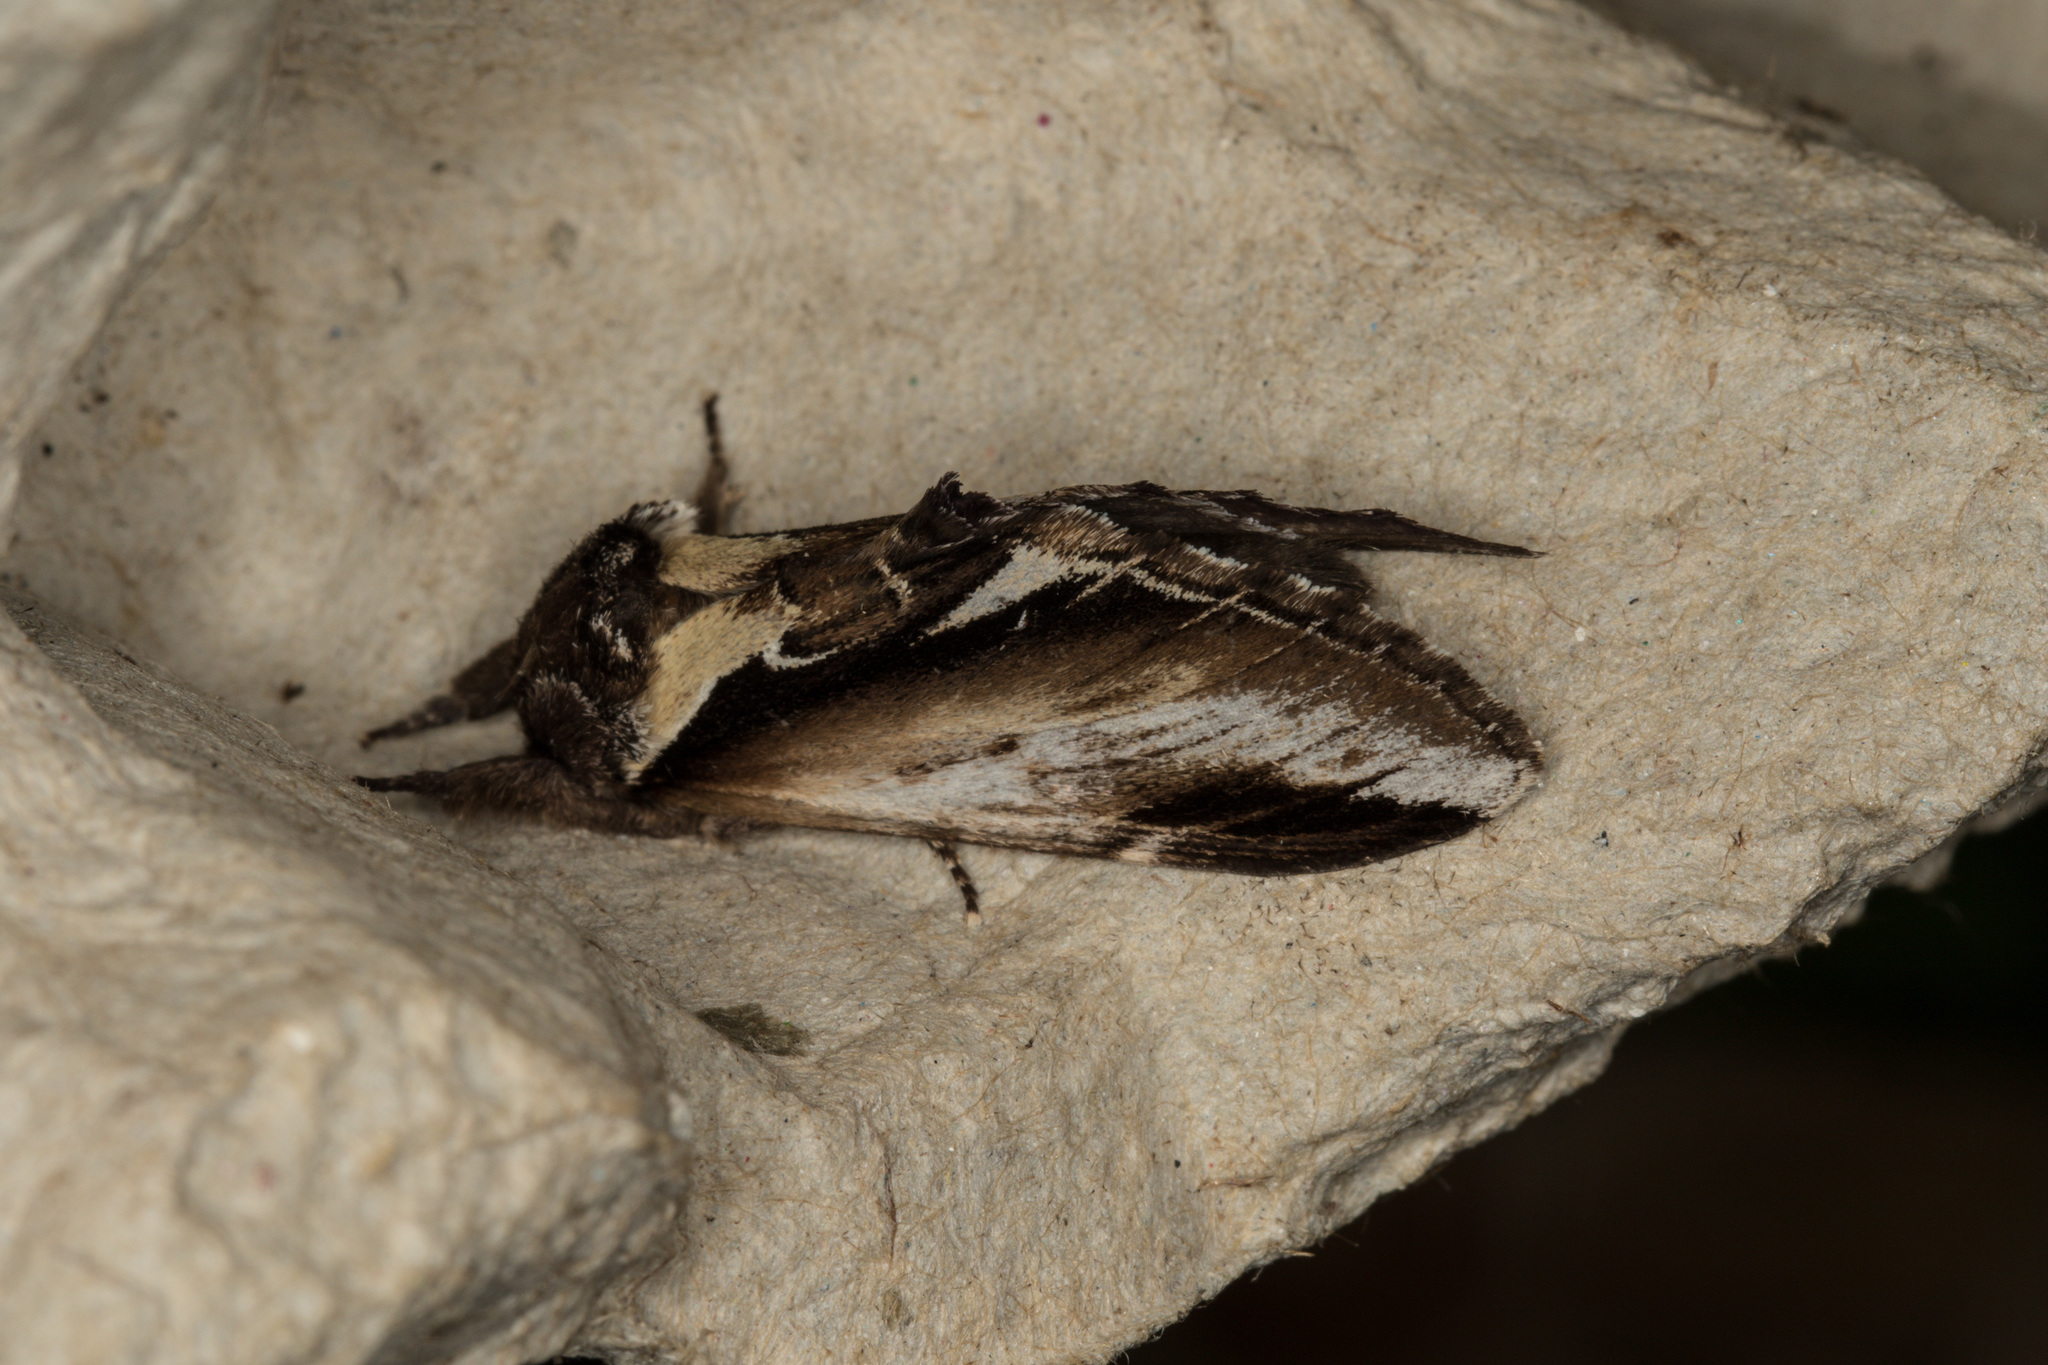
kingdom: Animalia
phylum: Arthropoda
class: Insecta
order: Lepidoptera
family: Notodontidae
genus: Pheosia
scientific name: Pheosia gnoma
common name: Lesser swallow prominent
